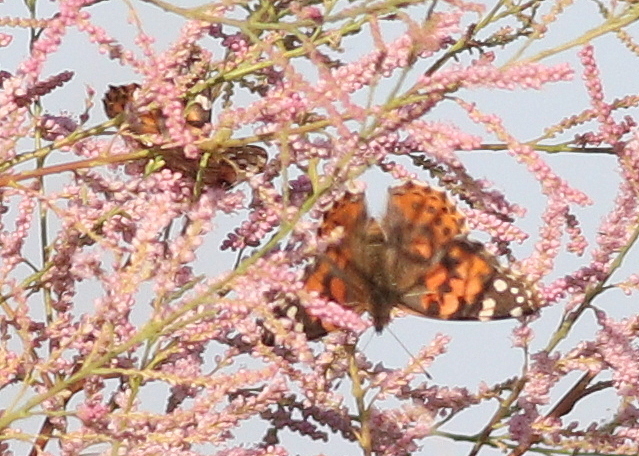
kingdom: Animalia
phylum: Arthropoda
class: Insecta
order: Lepidoptera
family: Nymphalidae
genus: Vanessa
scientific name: Vanessa cardui
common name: Painted lady
